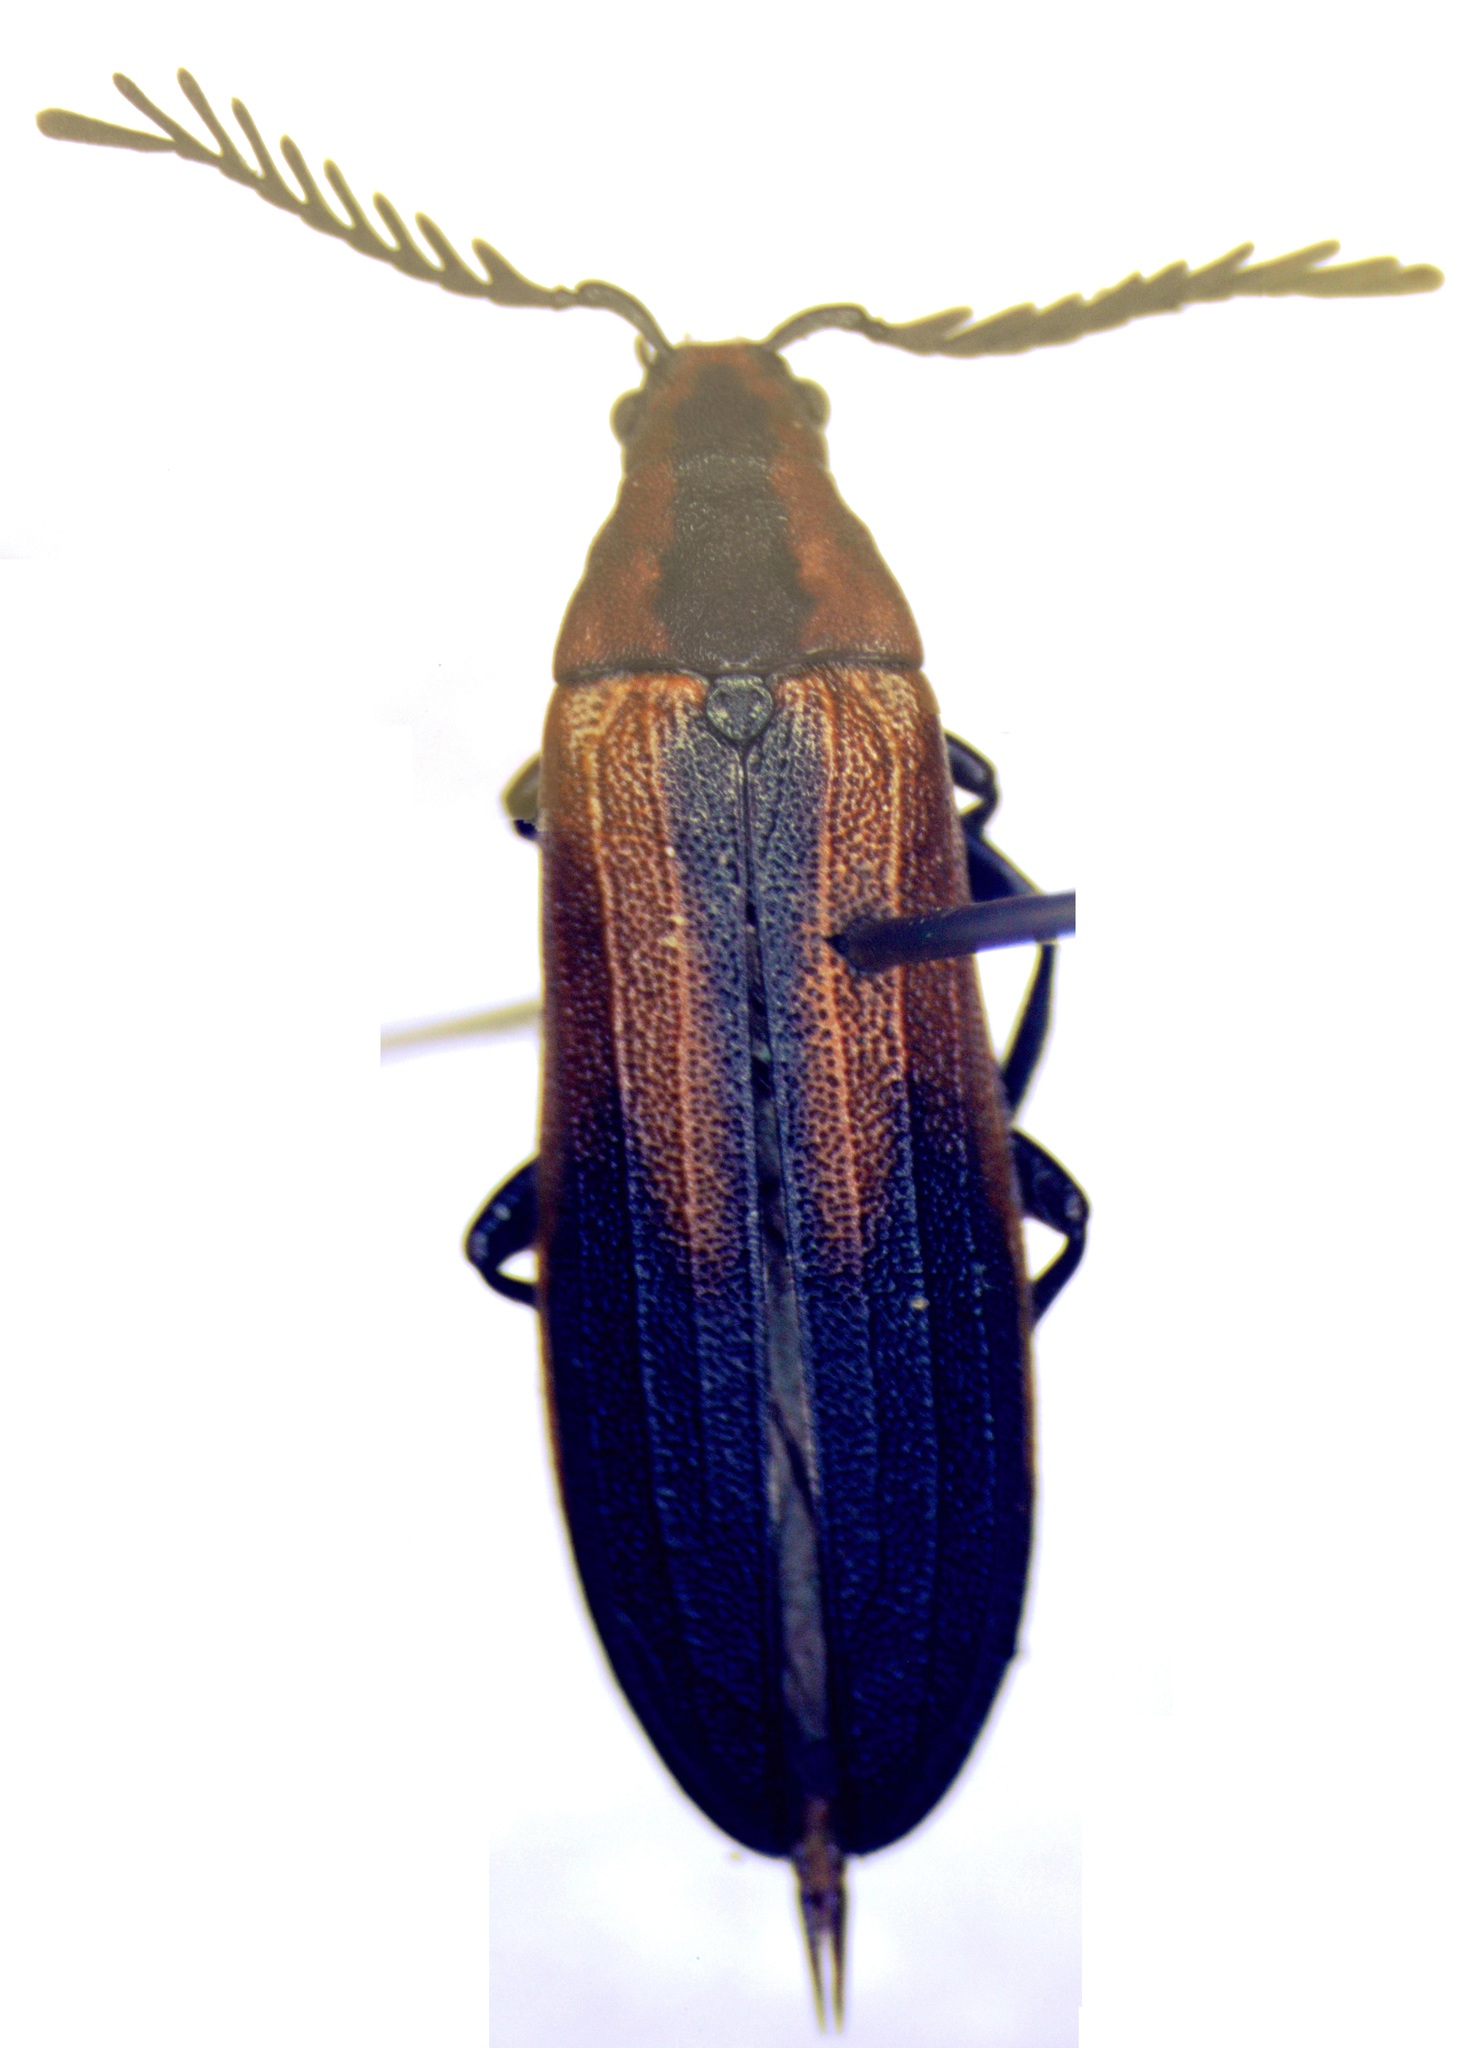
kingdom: Animalia
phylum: Arthropoda
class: Insecta
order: Coleoptera
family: Callirhipidae
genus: Celadonia
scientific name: Celadonia
